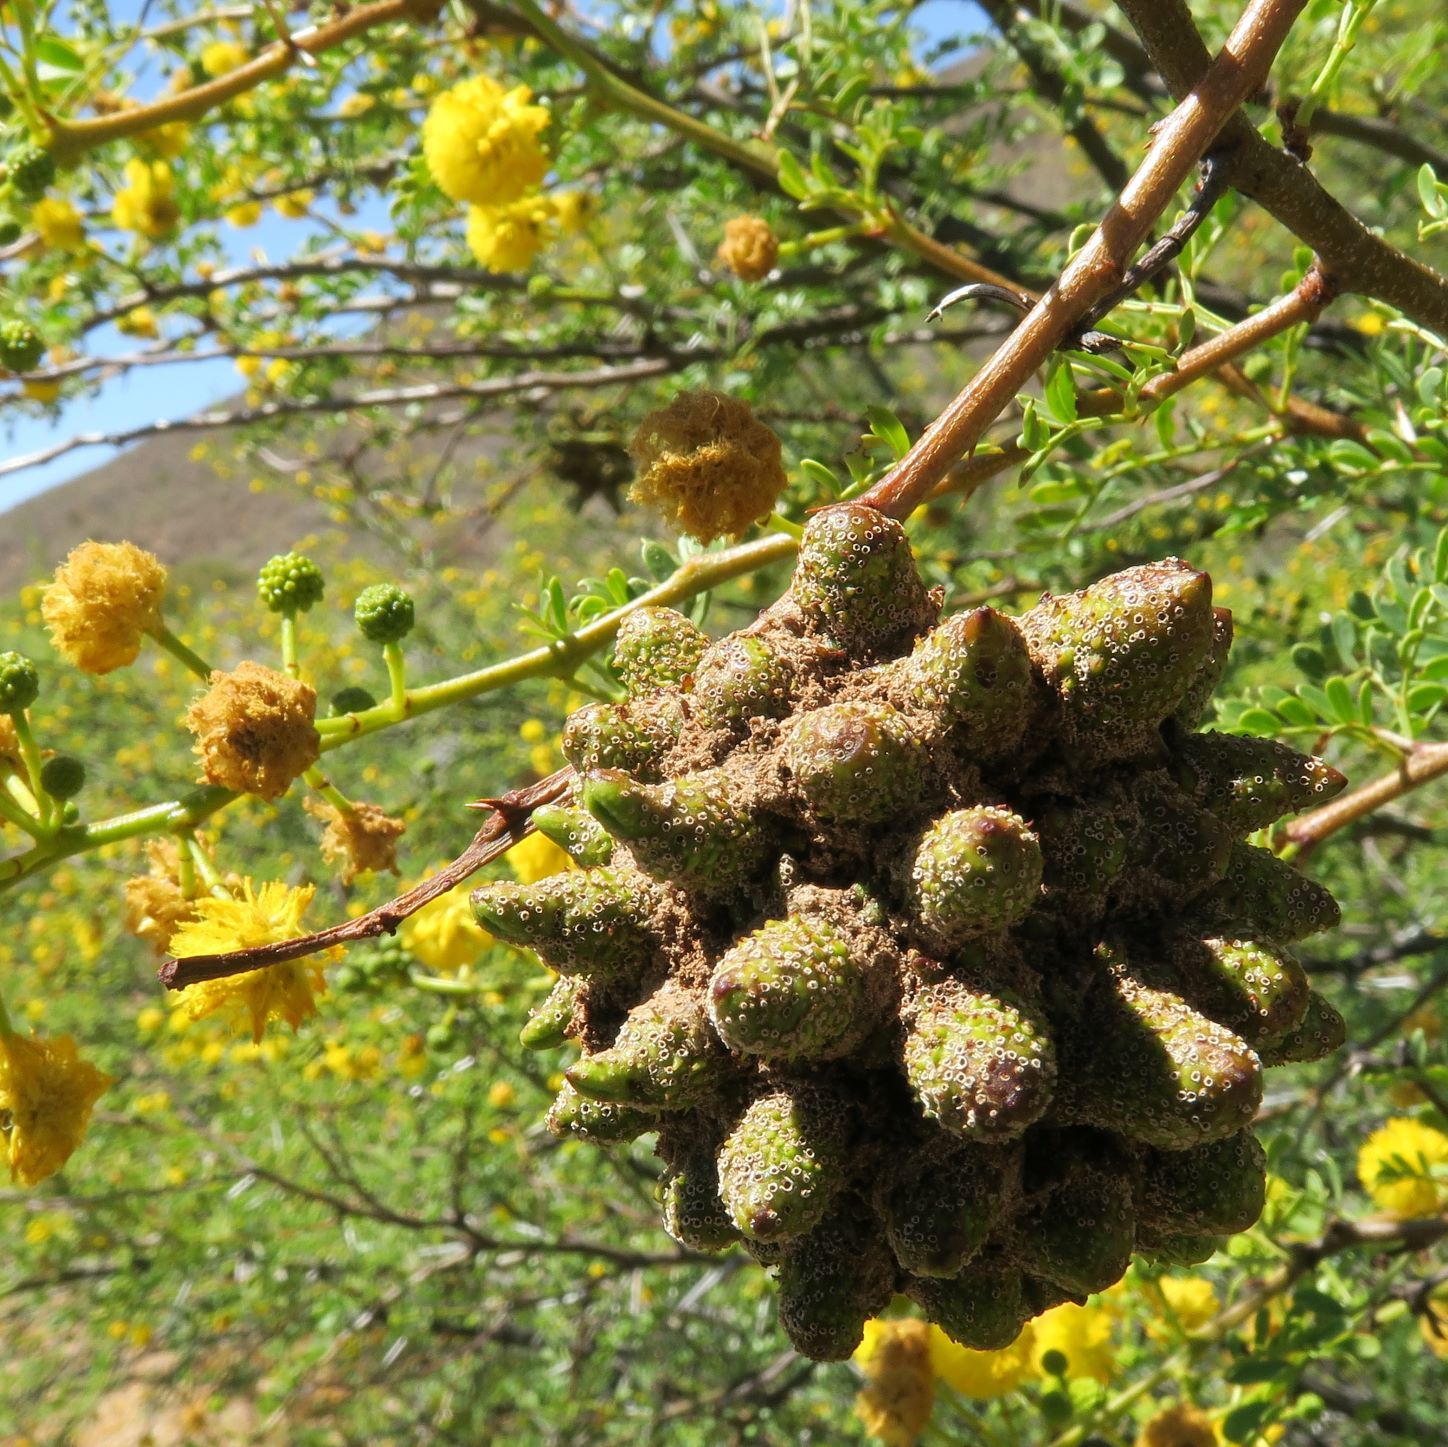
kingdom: Fungi
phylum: Basidiomycota
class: Pucciniomycetes
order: Pucciniales
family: Raveneliaceae
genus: Cephalotelium
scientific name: Cephalotelium macowanianum
